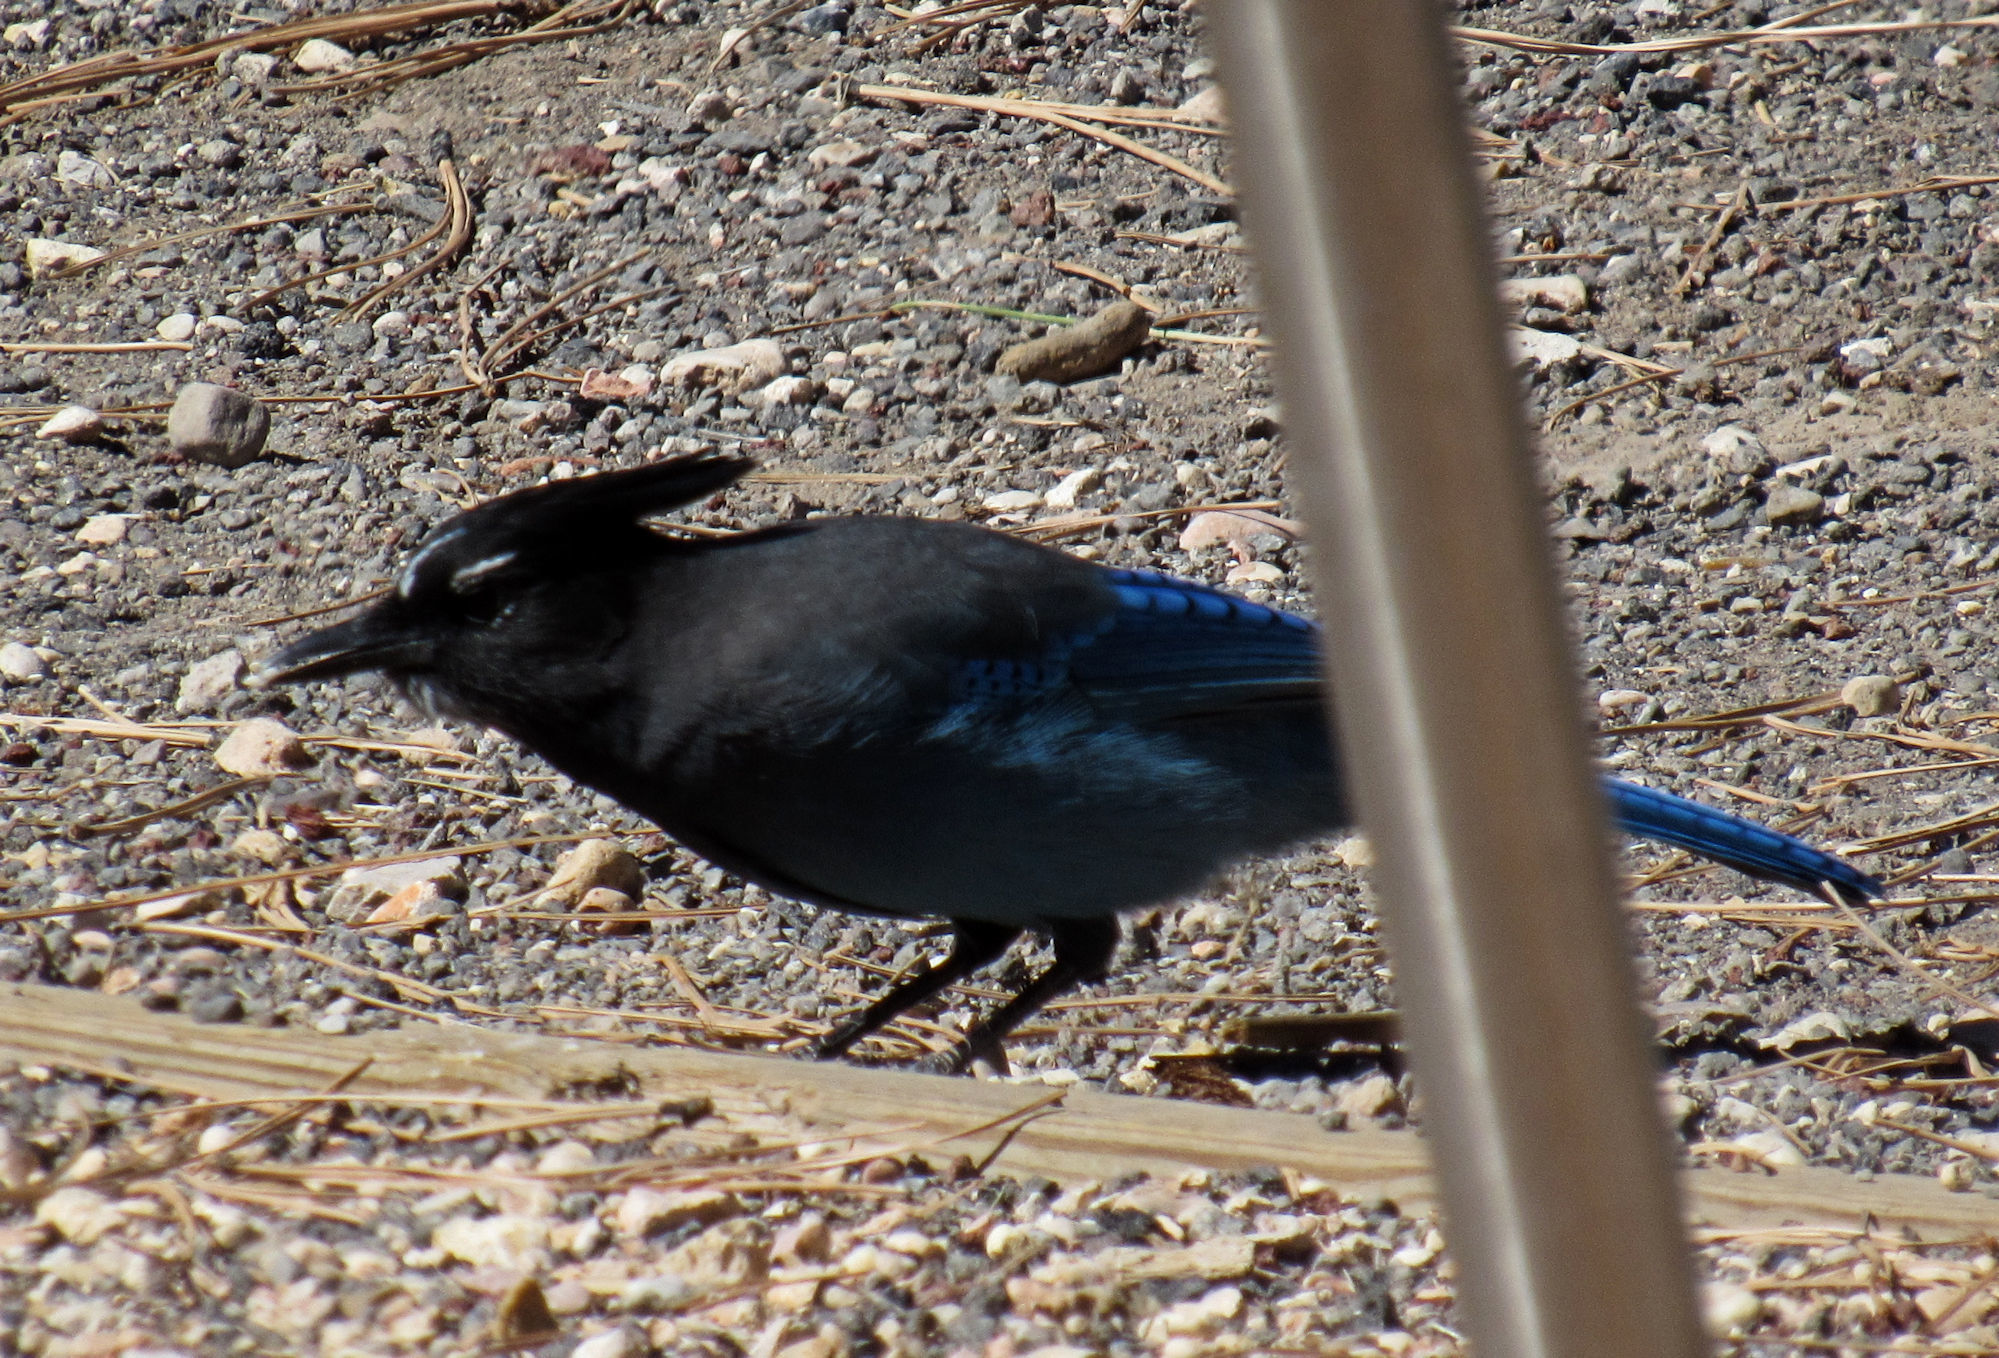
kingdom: Animalia
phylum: Chordata
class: Aves
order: Passeriformes
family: Corvidae
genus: Cyanocitta
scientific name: Cyanocitta stelleri
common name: Steller's jay
